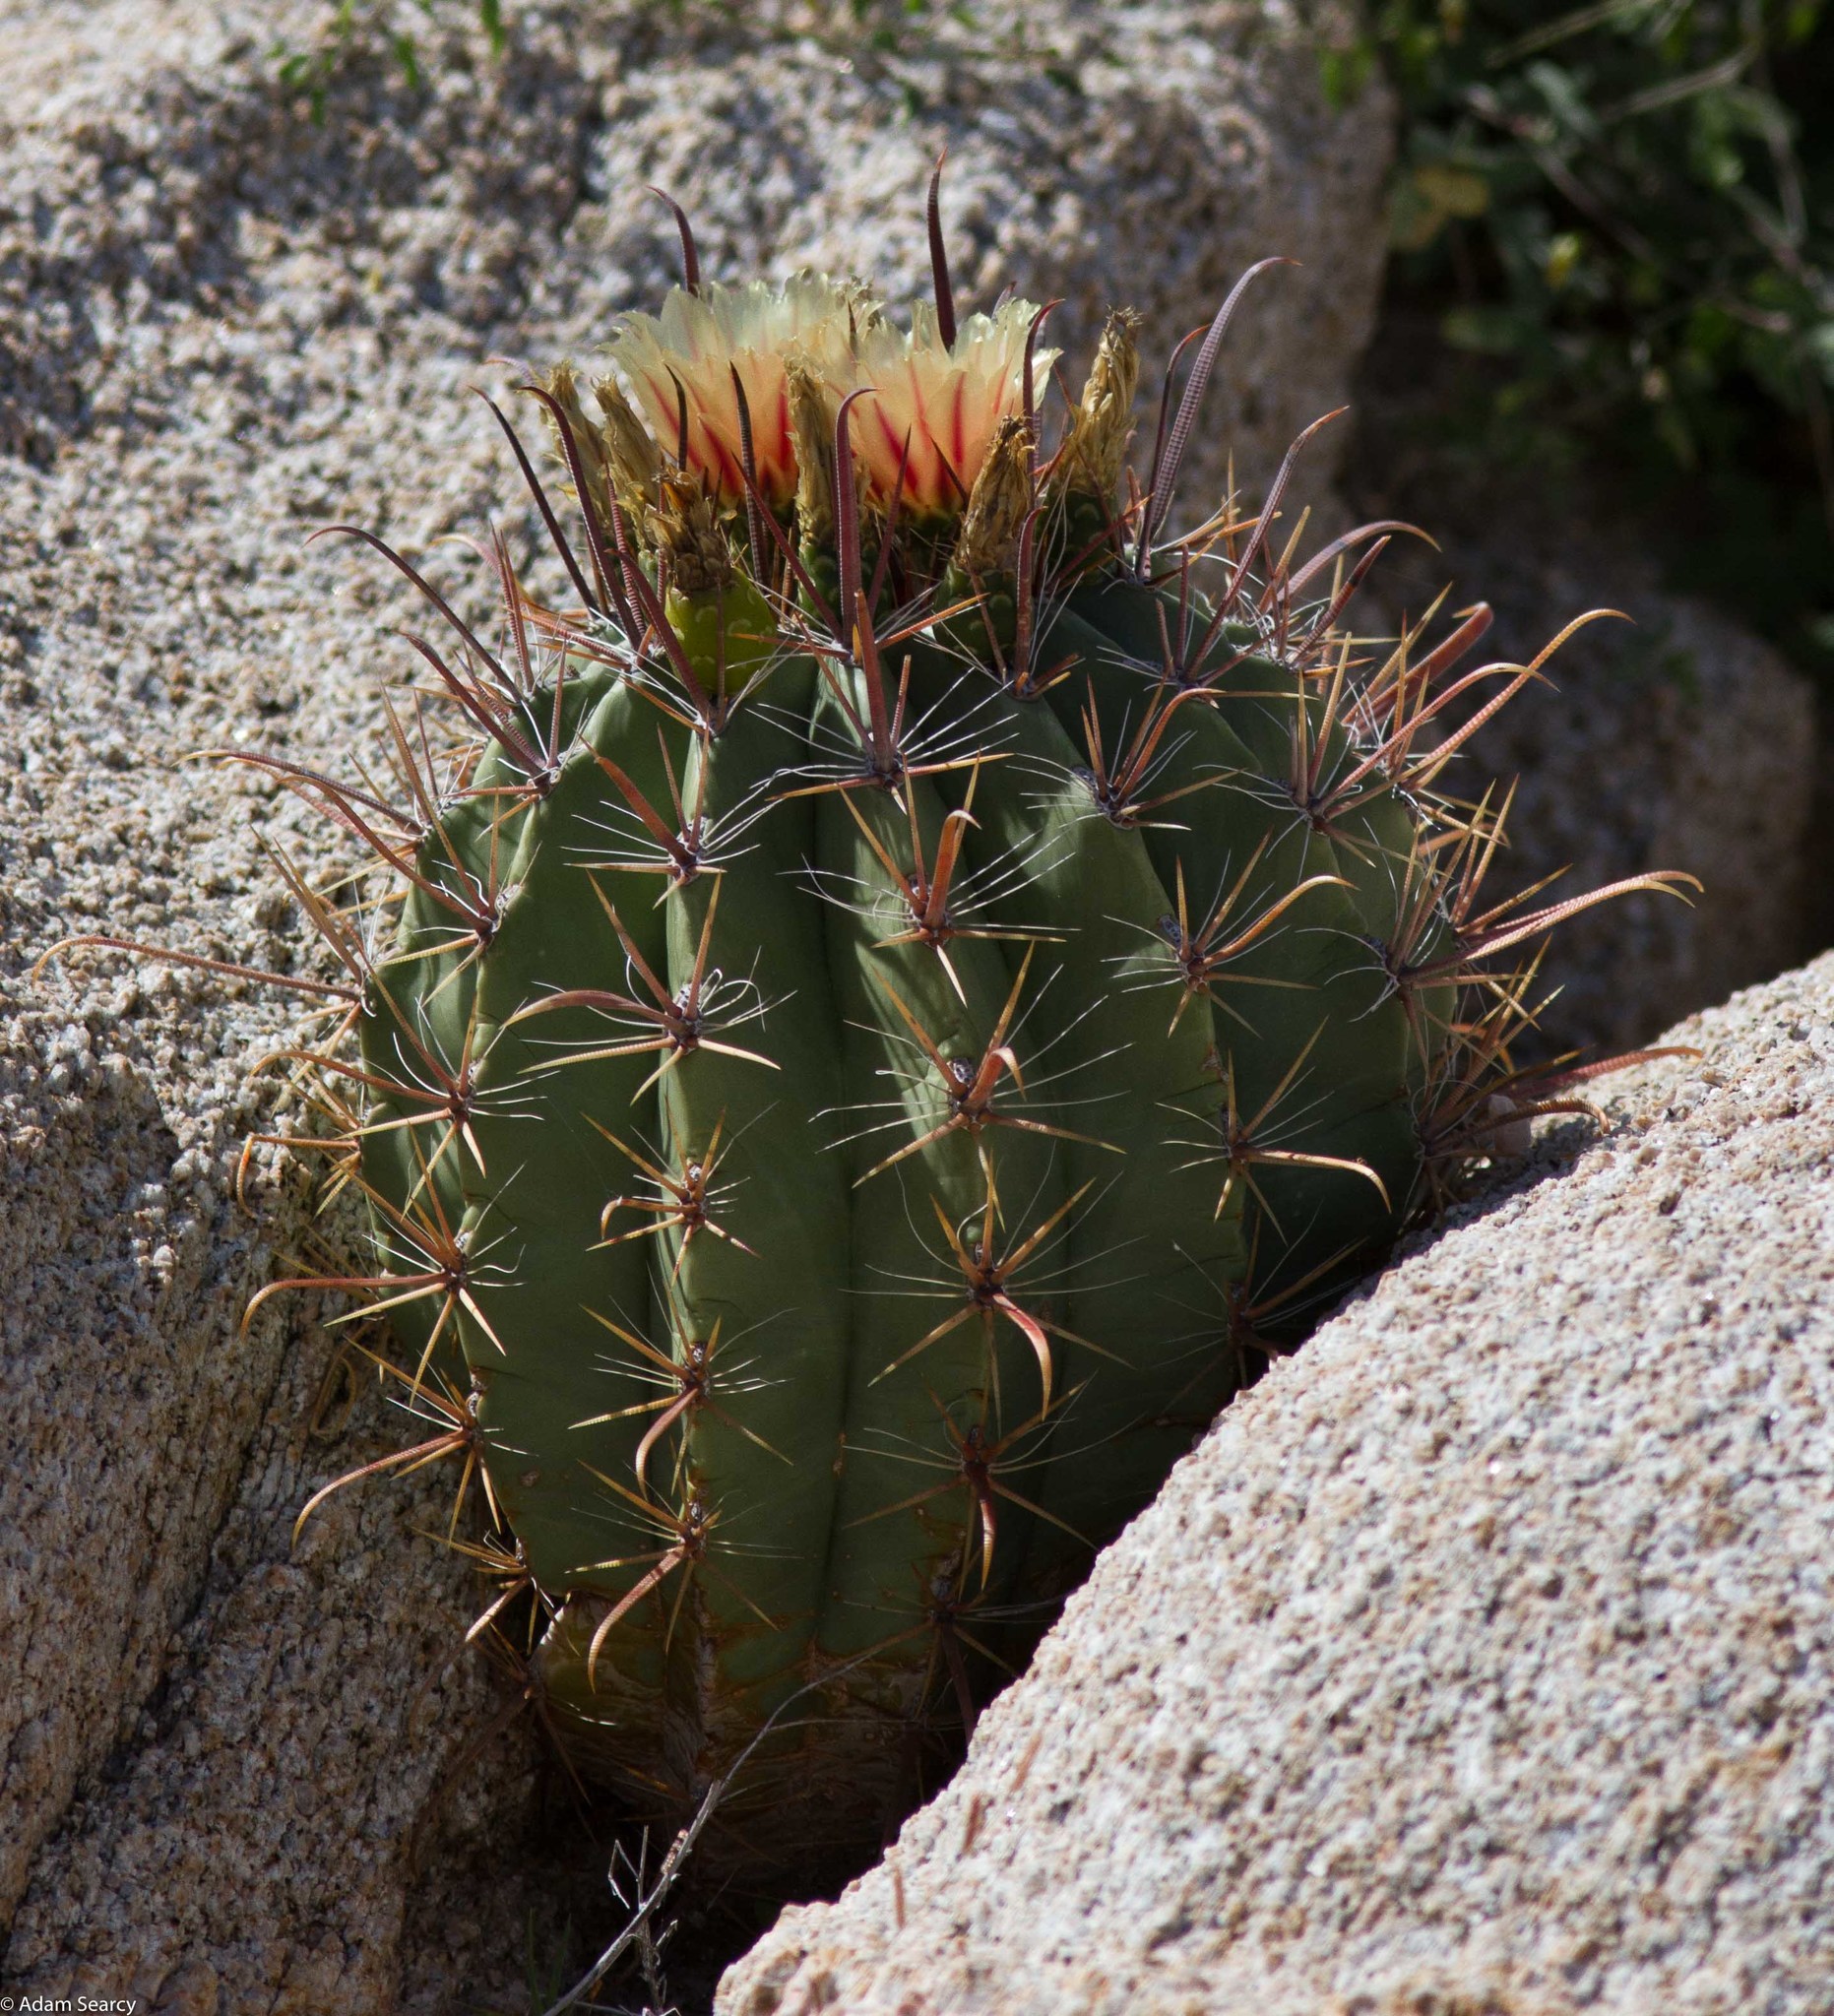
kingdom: Plantae
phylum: Tracheophyta
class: Magnoliopsida
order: Caryophyllales
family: Cactaceae
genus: Ferocactus
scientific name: Ferocactus townsendianus
